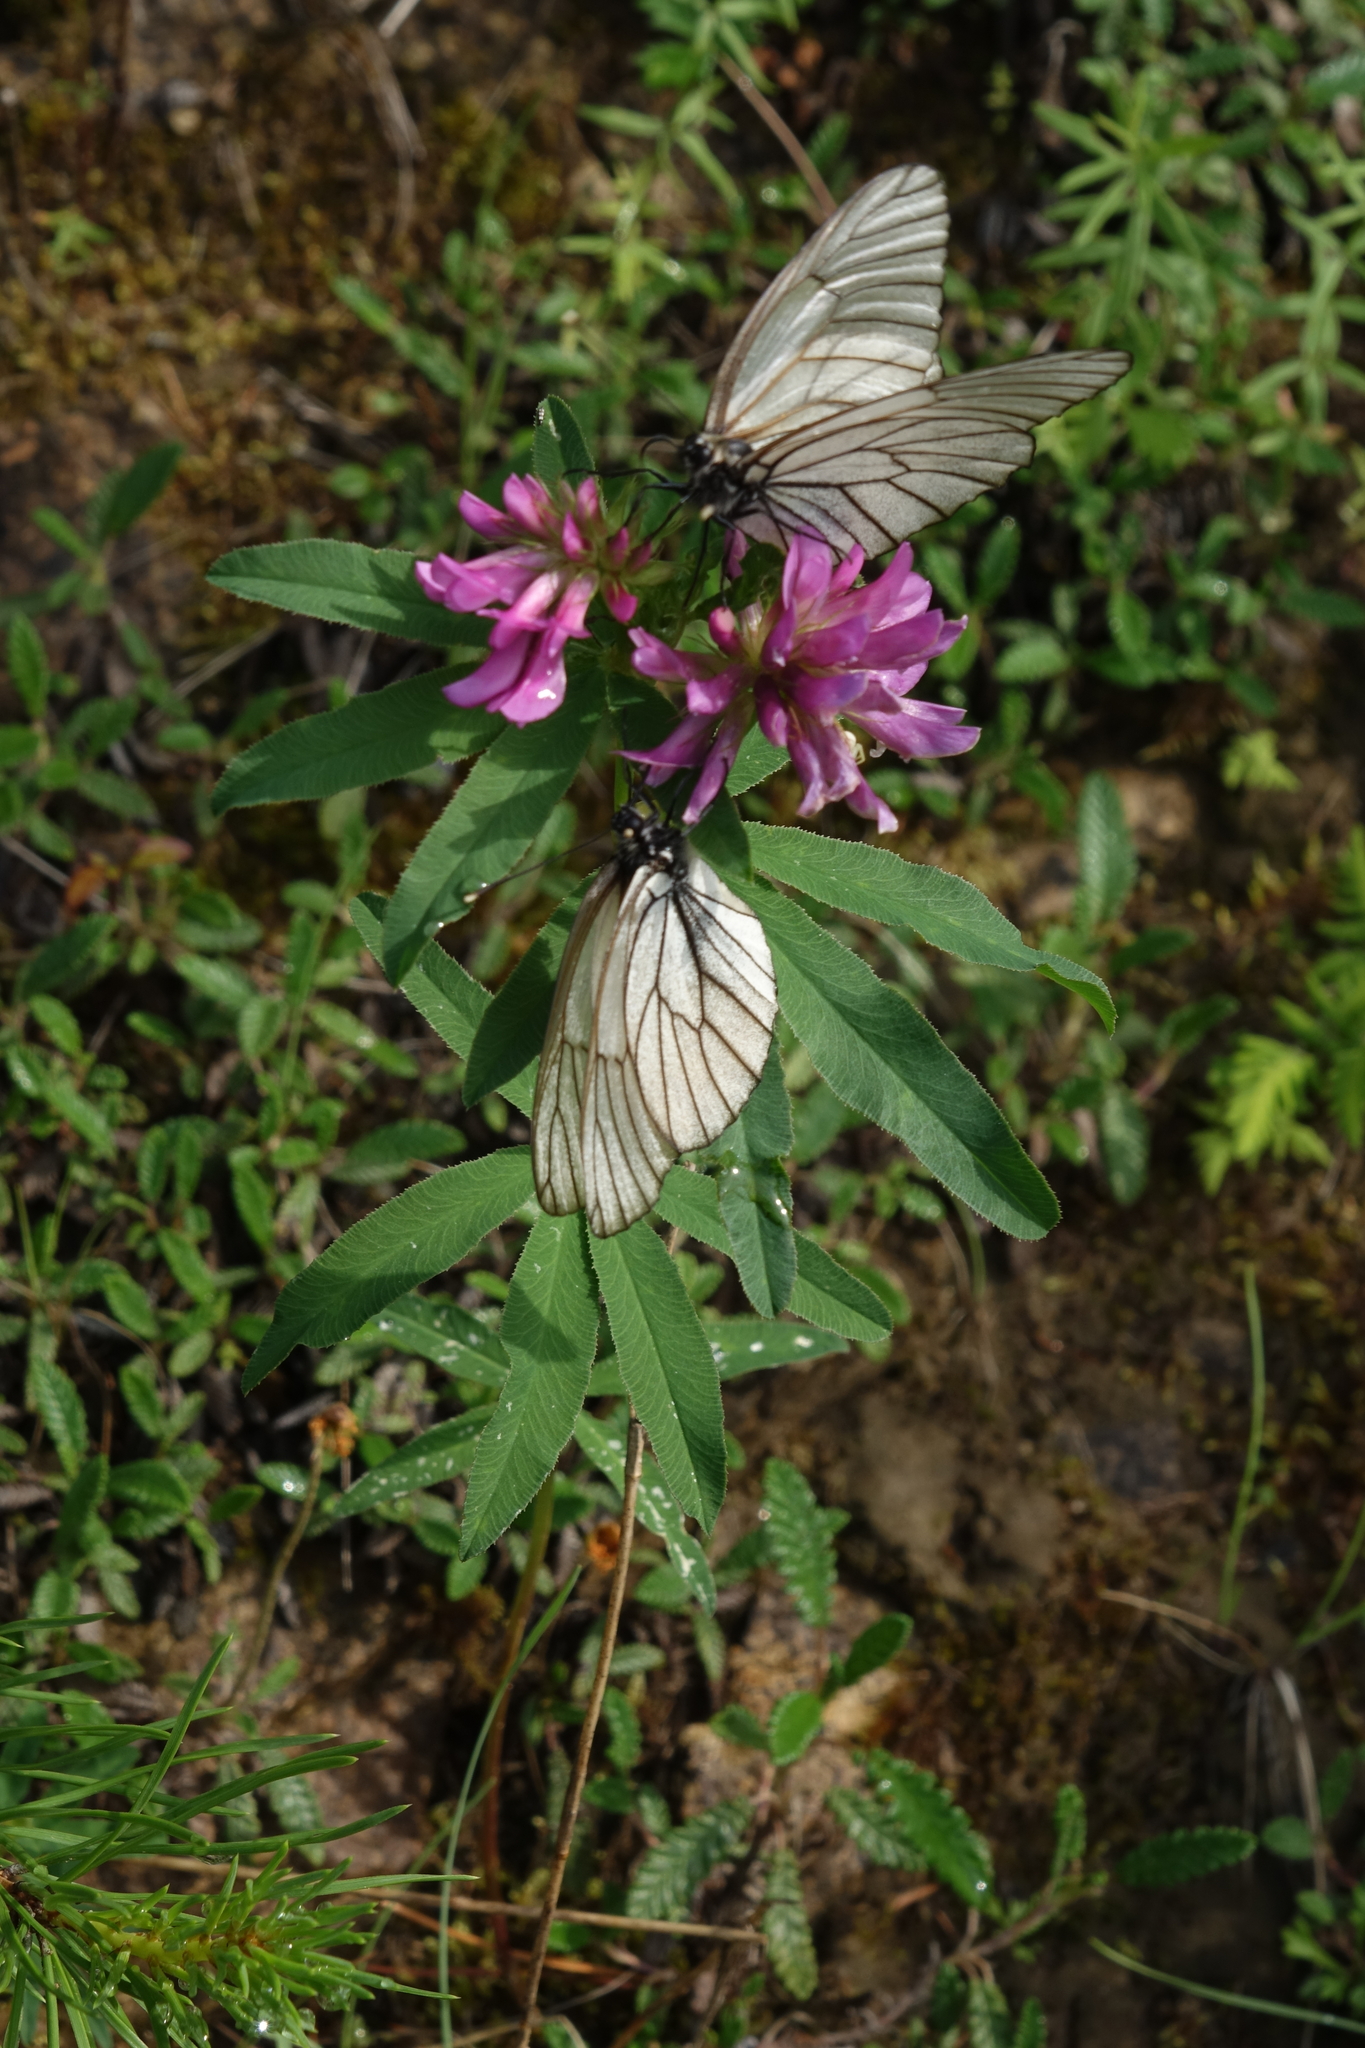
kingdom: Plantae
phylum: Tracheophyta
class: Magnoliopsida
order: Fabales
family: Fabaceae
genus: Trifolium
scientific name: Trifolium lupinaster
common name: Lupine clover
